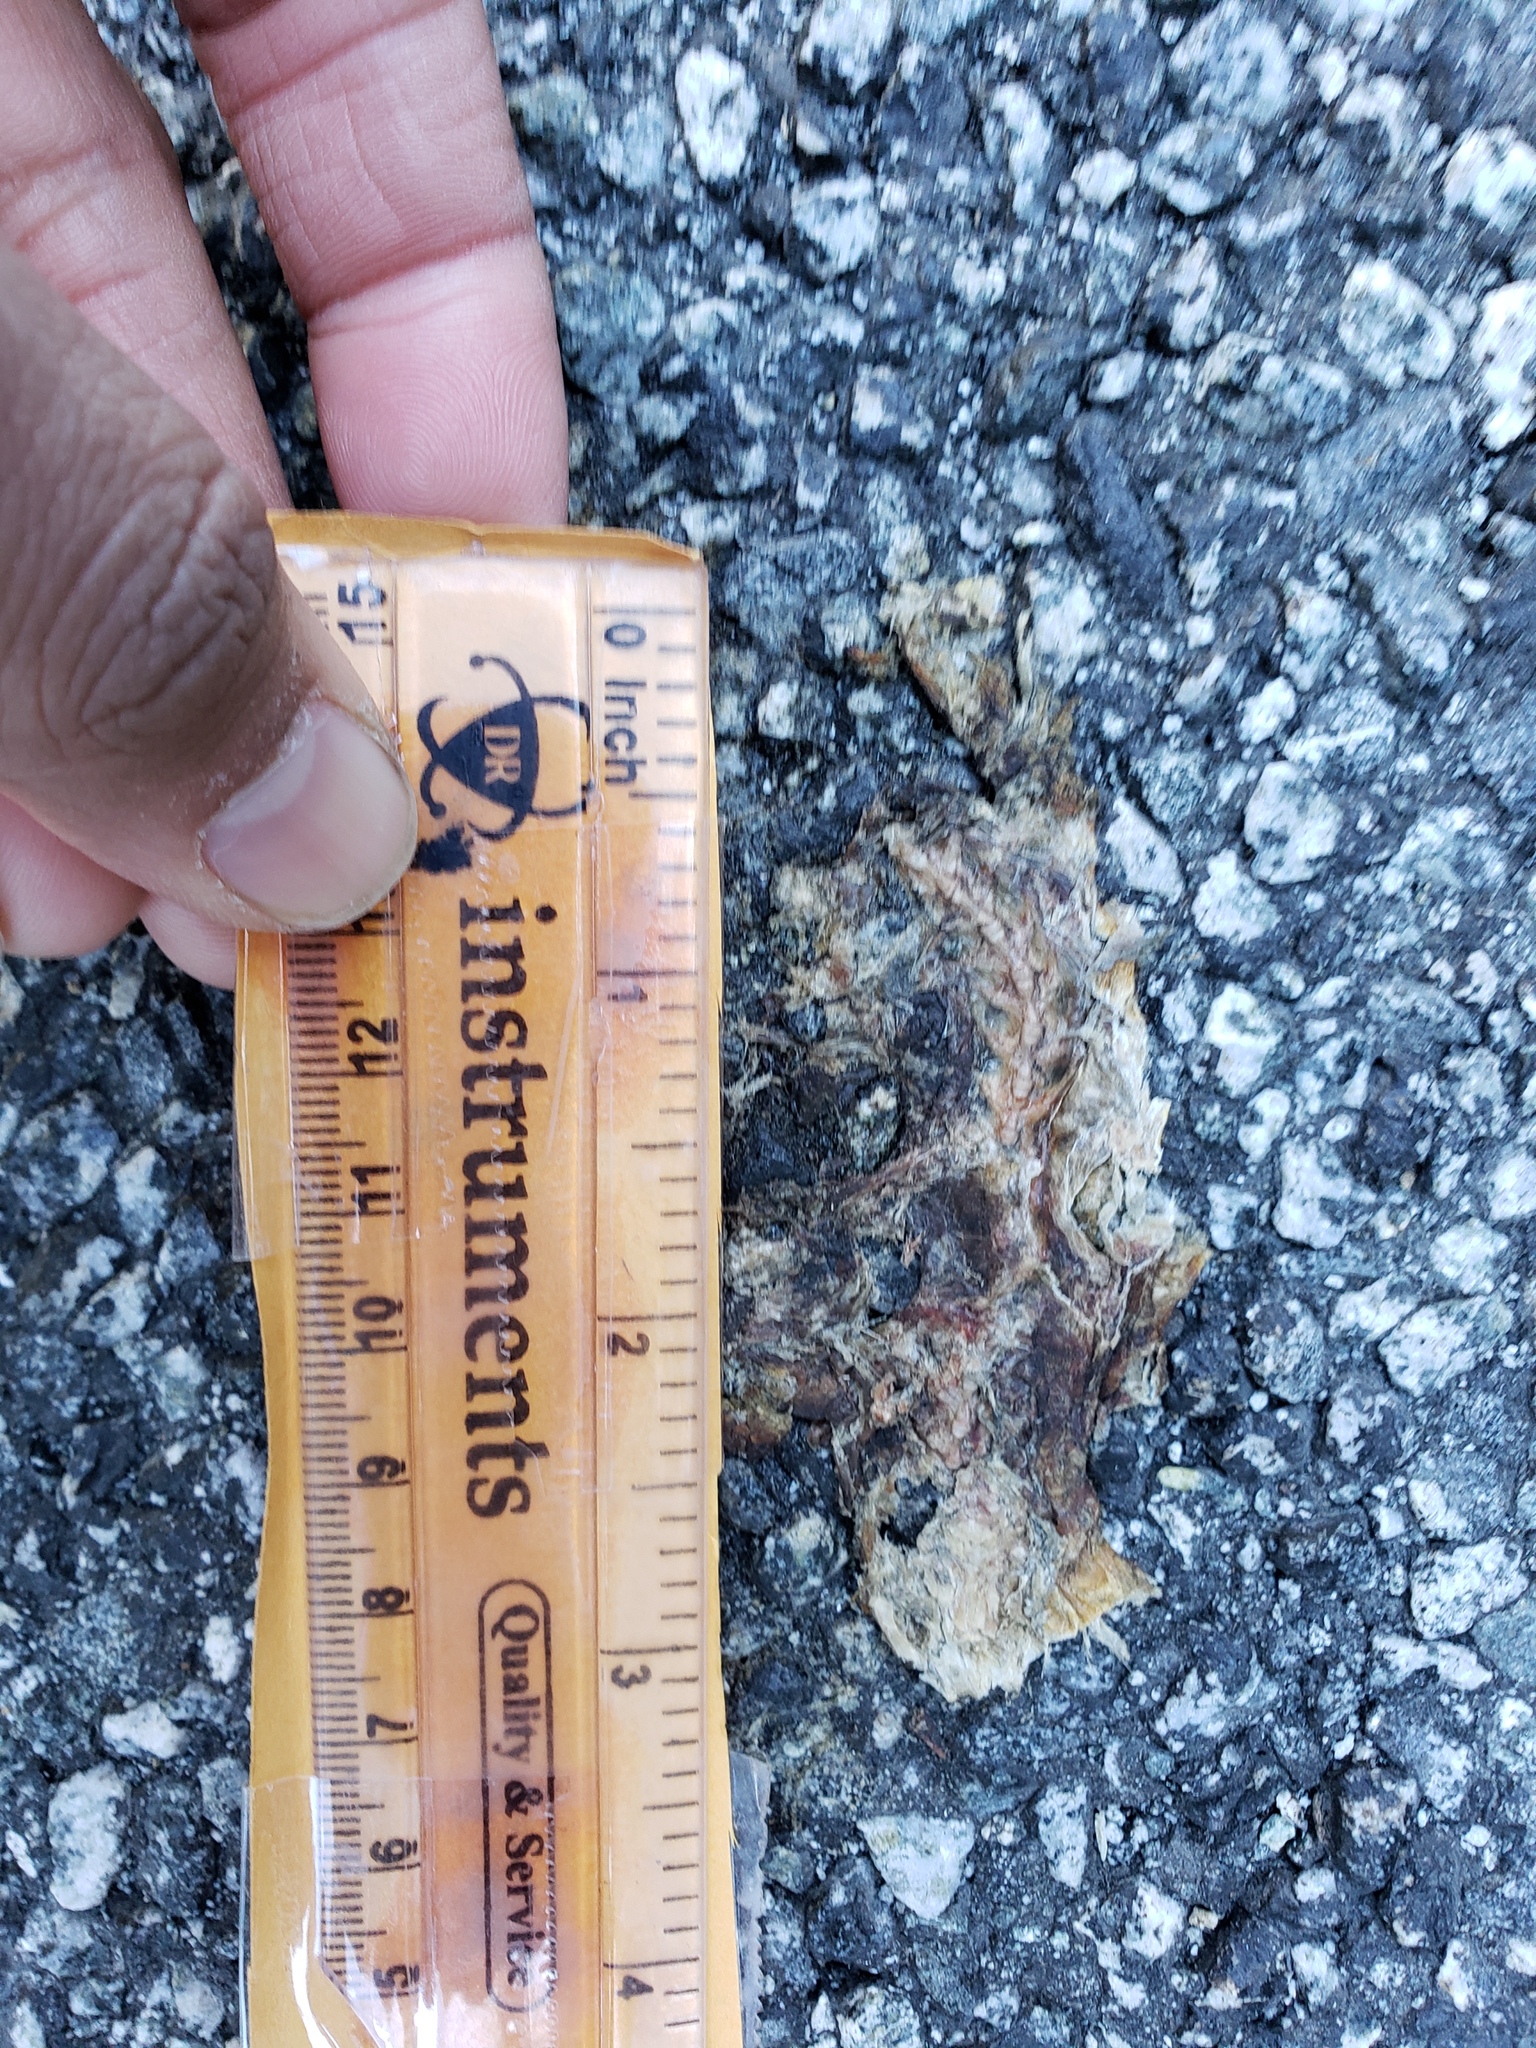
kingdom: Animalia
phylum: Chordata
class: Amphibia
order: Caudata
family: Salamandridae
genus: Taricha
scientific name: Taricha
